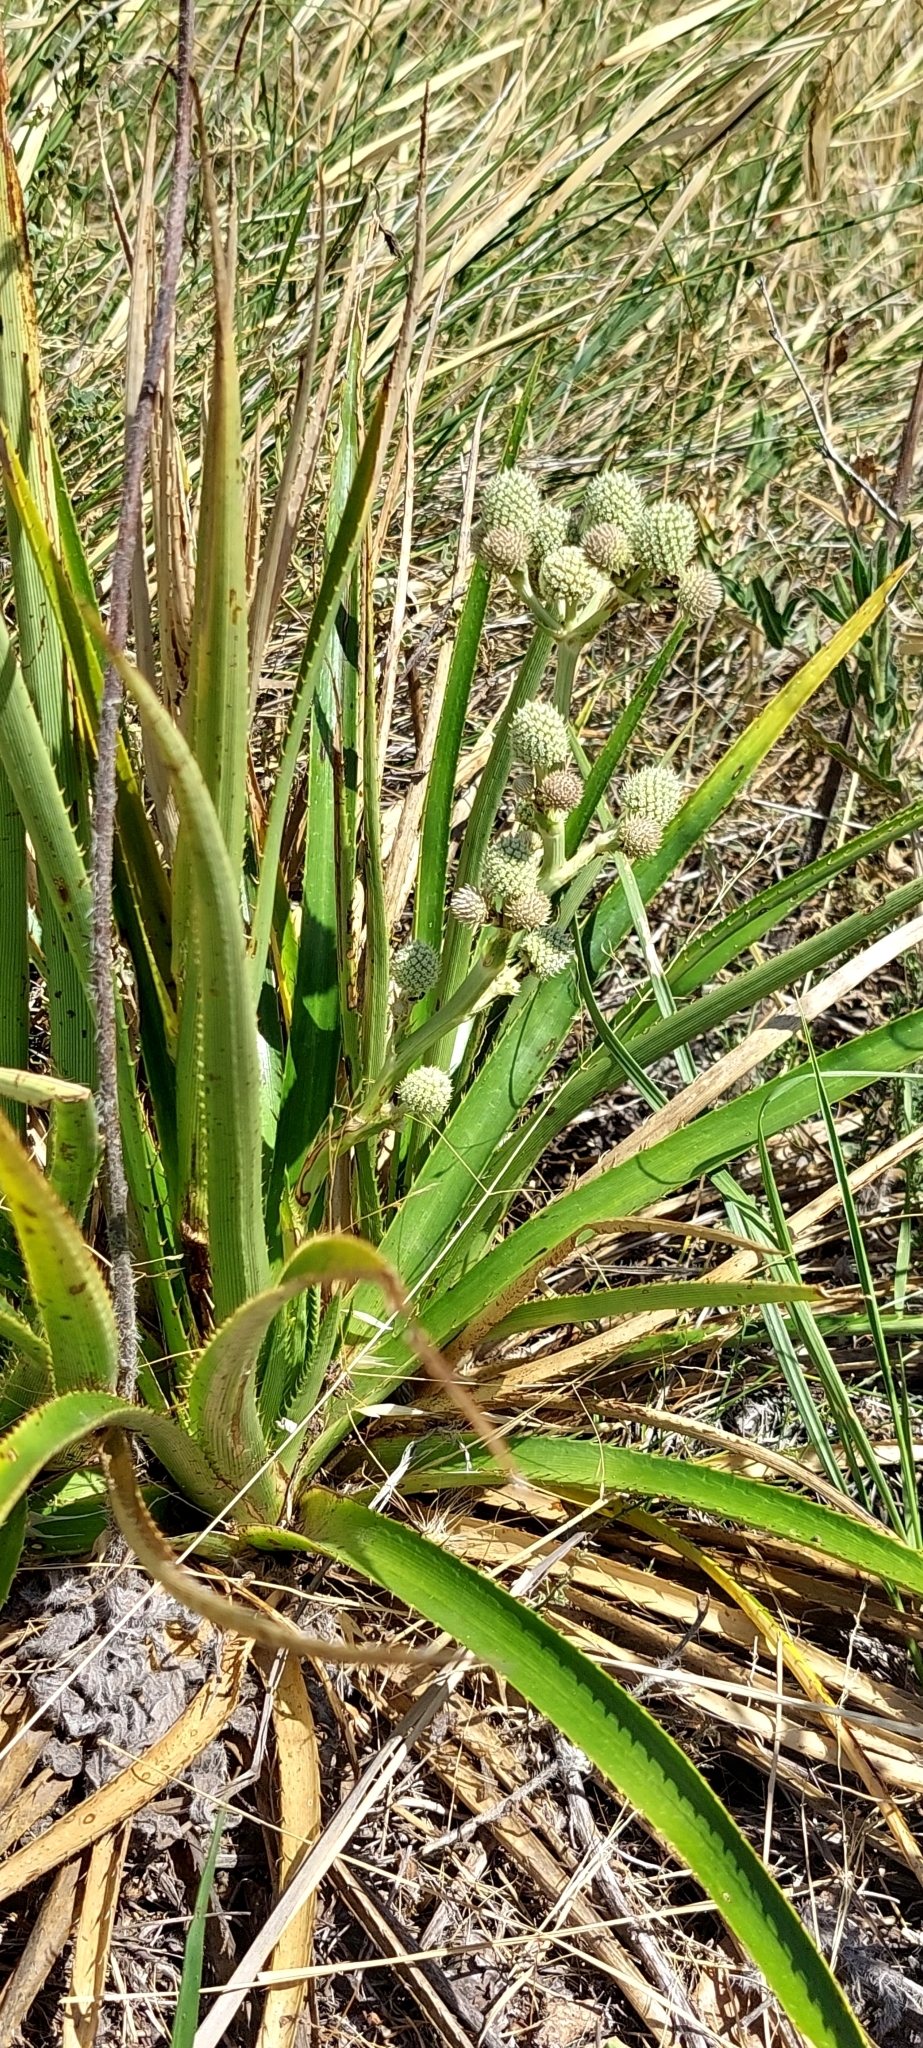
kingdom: Plantae
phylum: Tracheophyta
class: Magnoliopsida
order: Apiales
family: Apiaceae
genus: Eryngium
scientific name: Eryngium humboldtii
